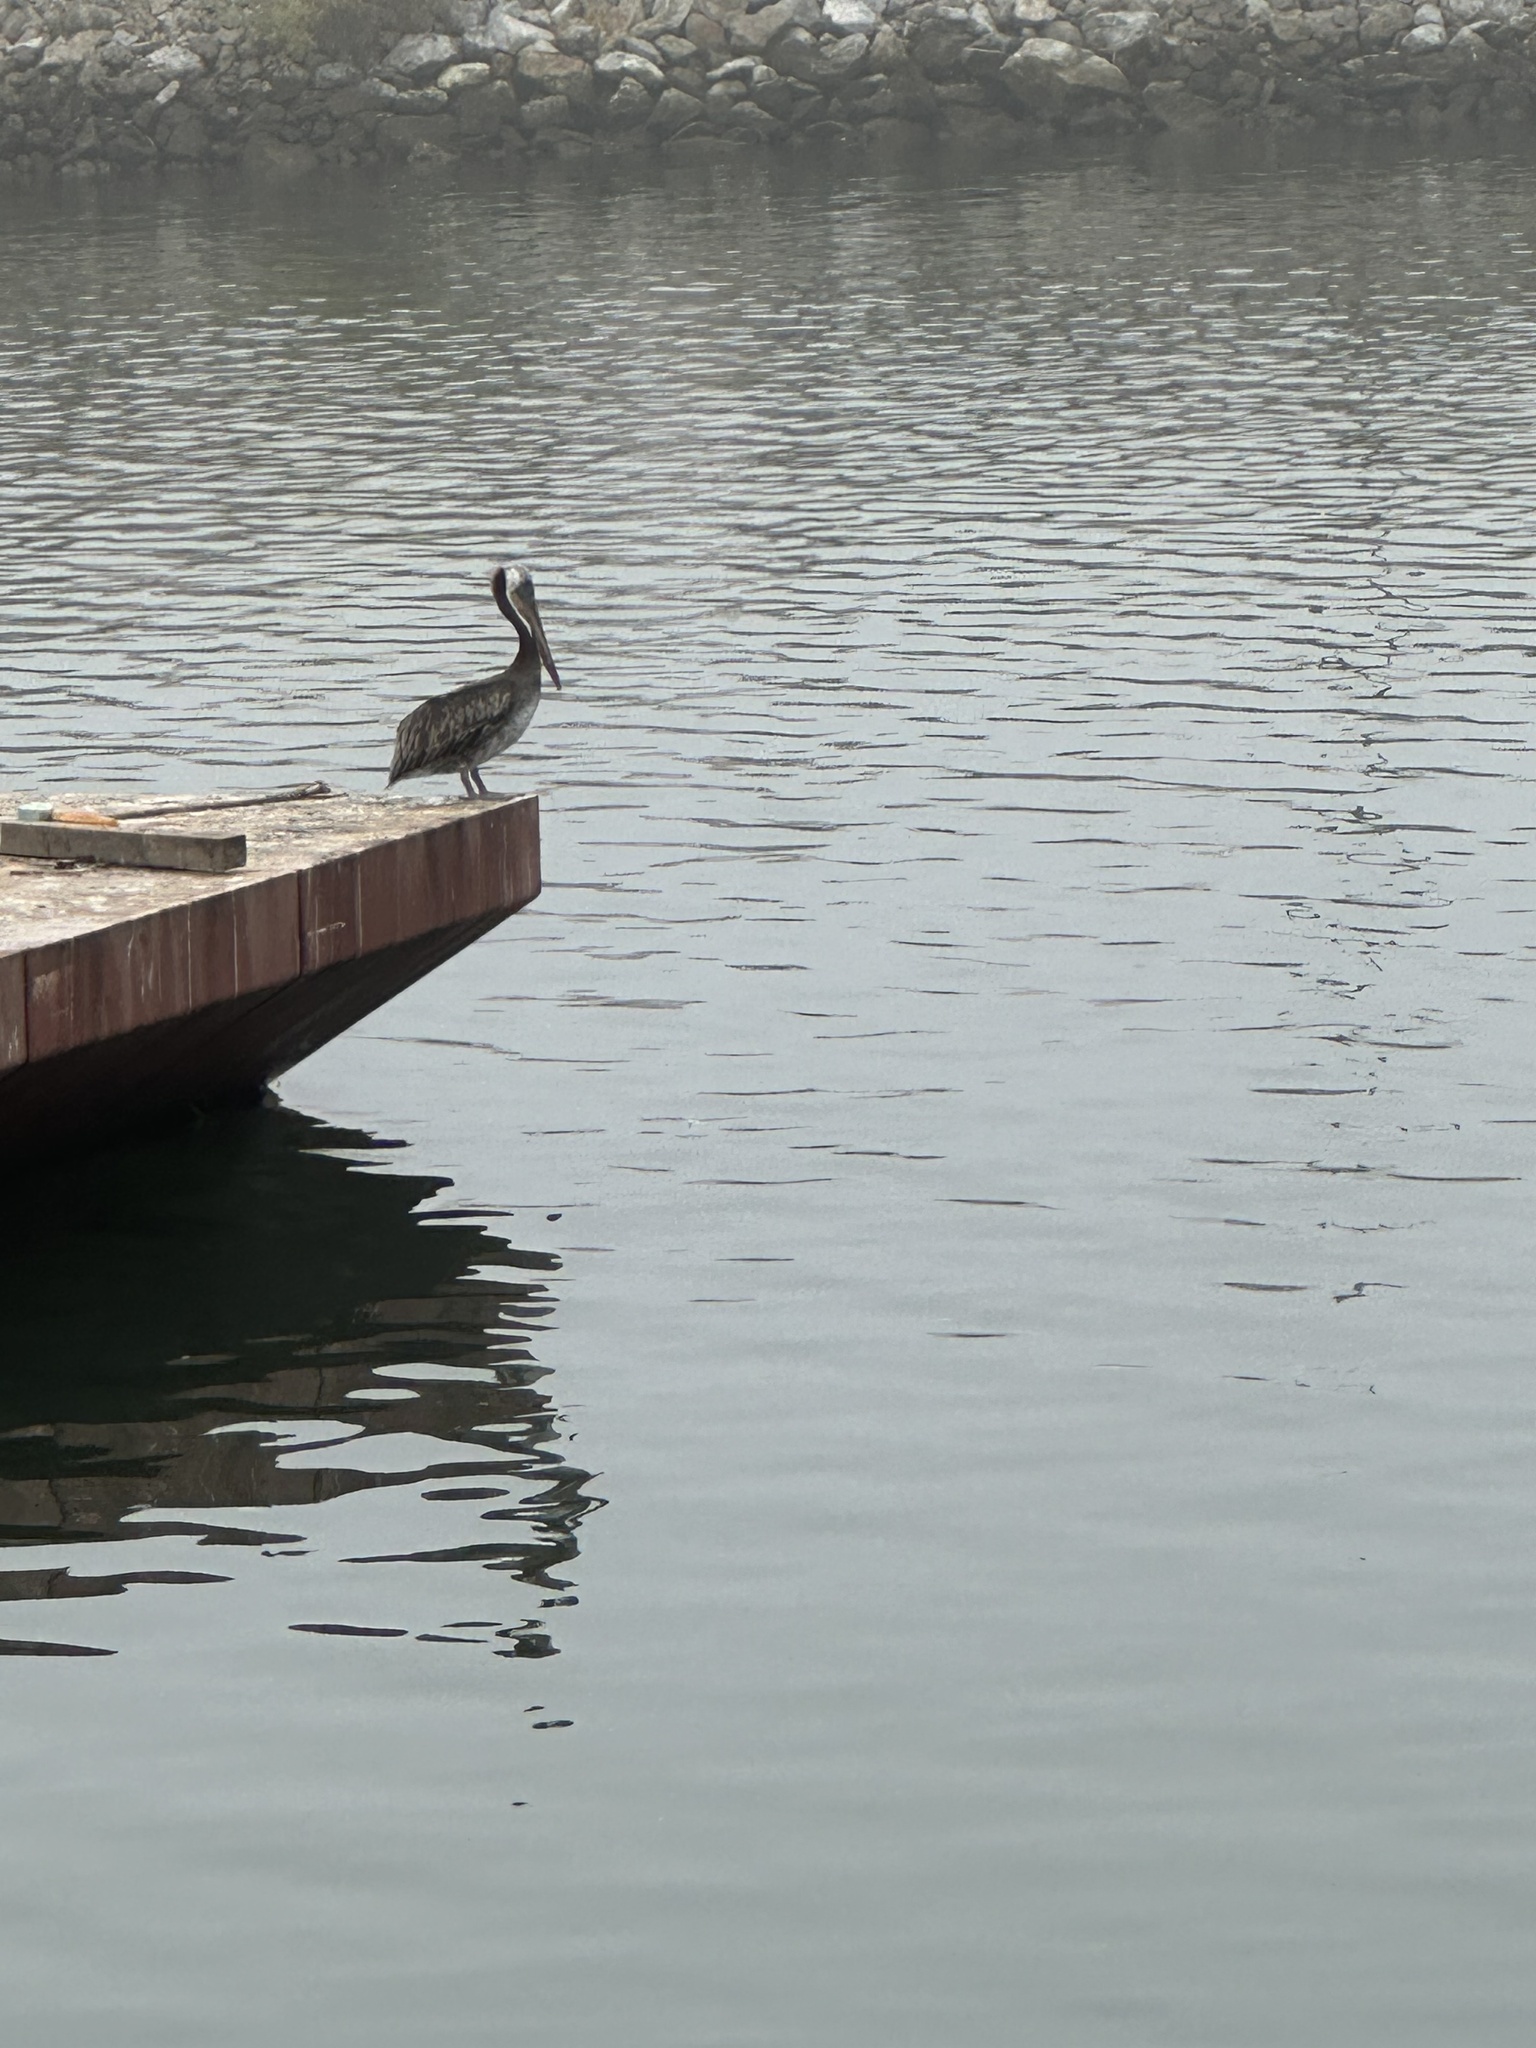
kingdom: Animalia
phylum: Chordata
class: Aves
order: Pelecaniformes
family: Pelecanidae
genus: Pelecanus
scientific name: Pelecanus occidentalis
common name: Brown pelican
